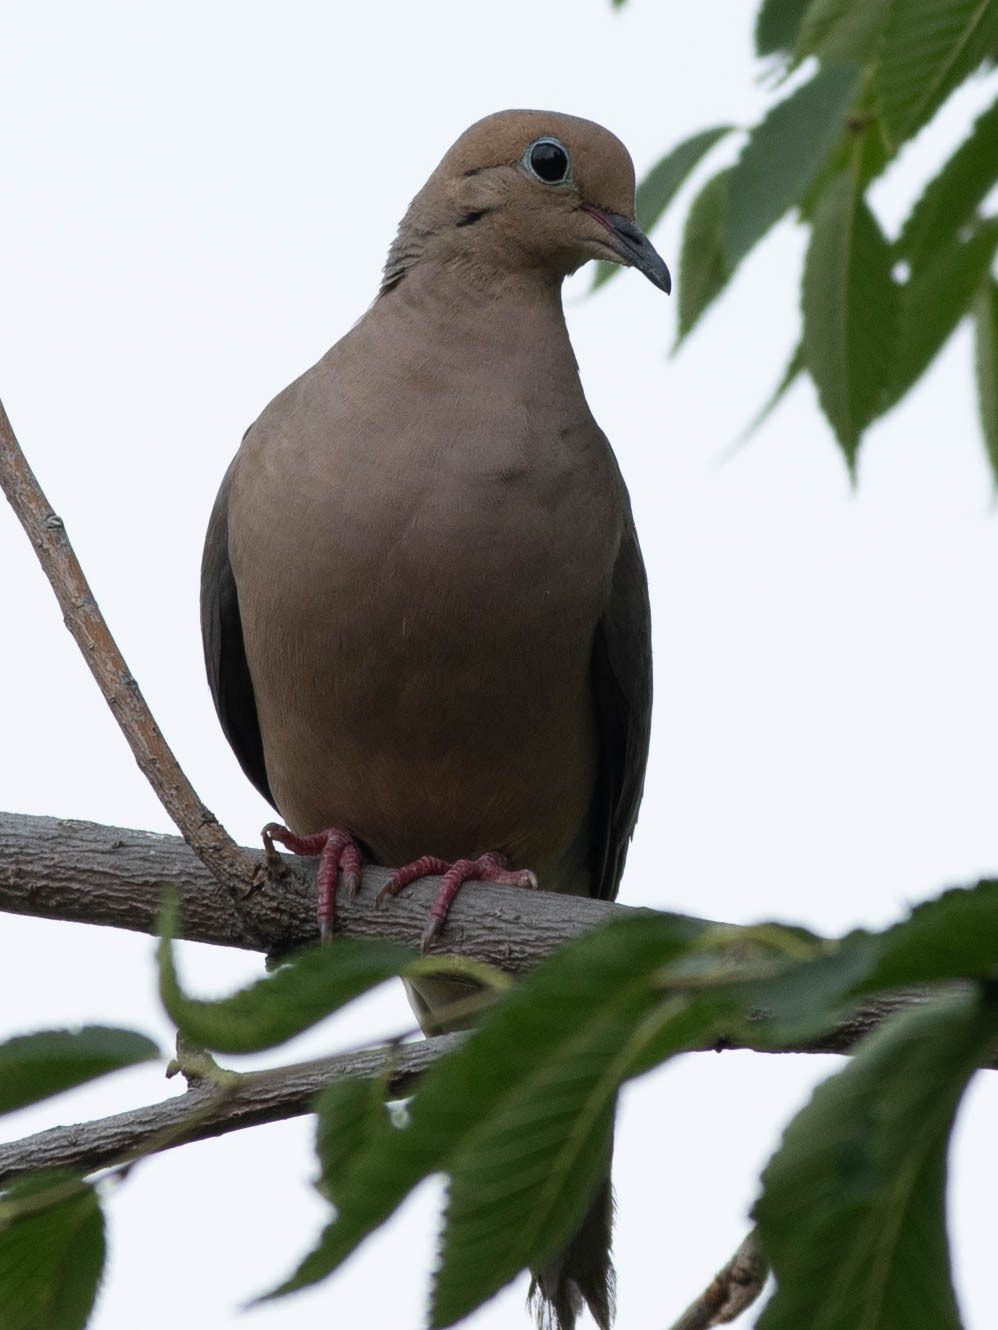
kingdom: Animalia
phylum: Chordata
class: Aves
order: Columbiformes
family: Columbidae
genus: Zenaida
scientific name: Zenaida macroura
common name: Mourning dove
